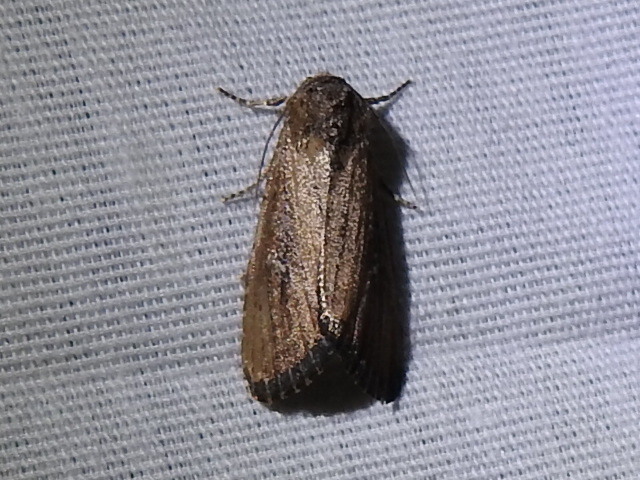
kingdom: Animalia
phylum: Arthropoda
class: Insecta
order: Lepidoptera
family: Noctuidae
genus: Condica
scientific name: Condica videns
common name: White-dotted groundling
